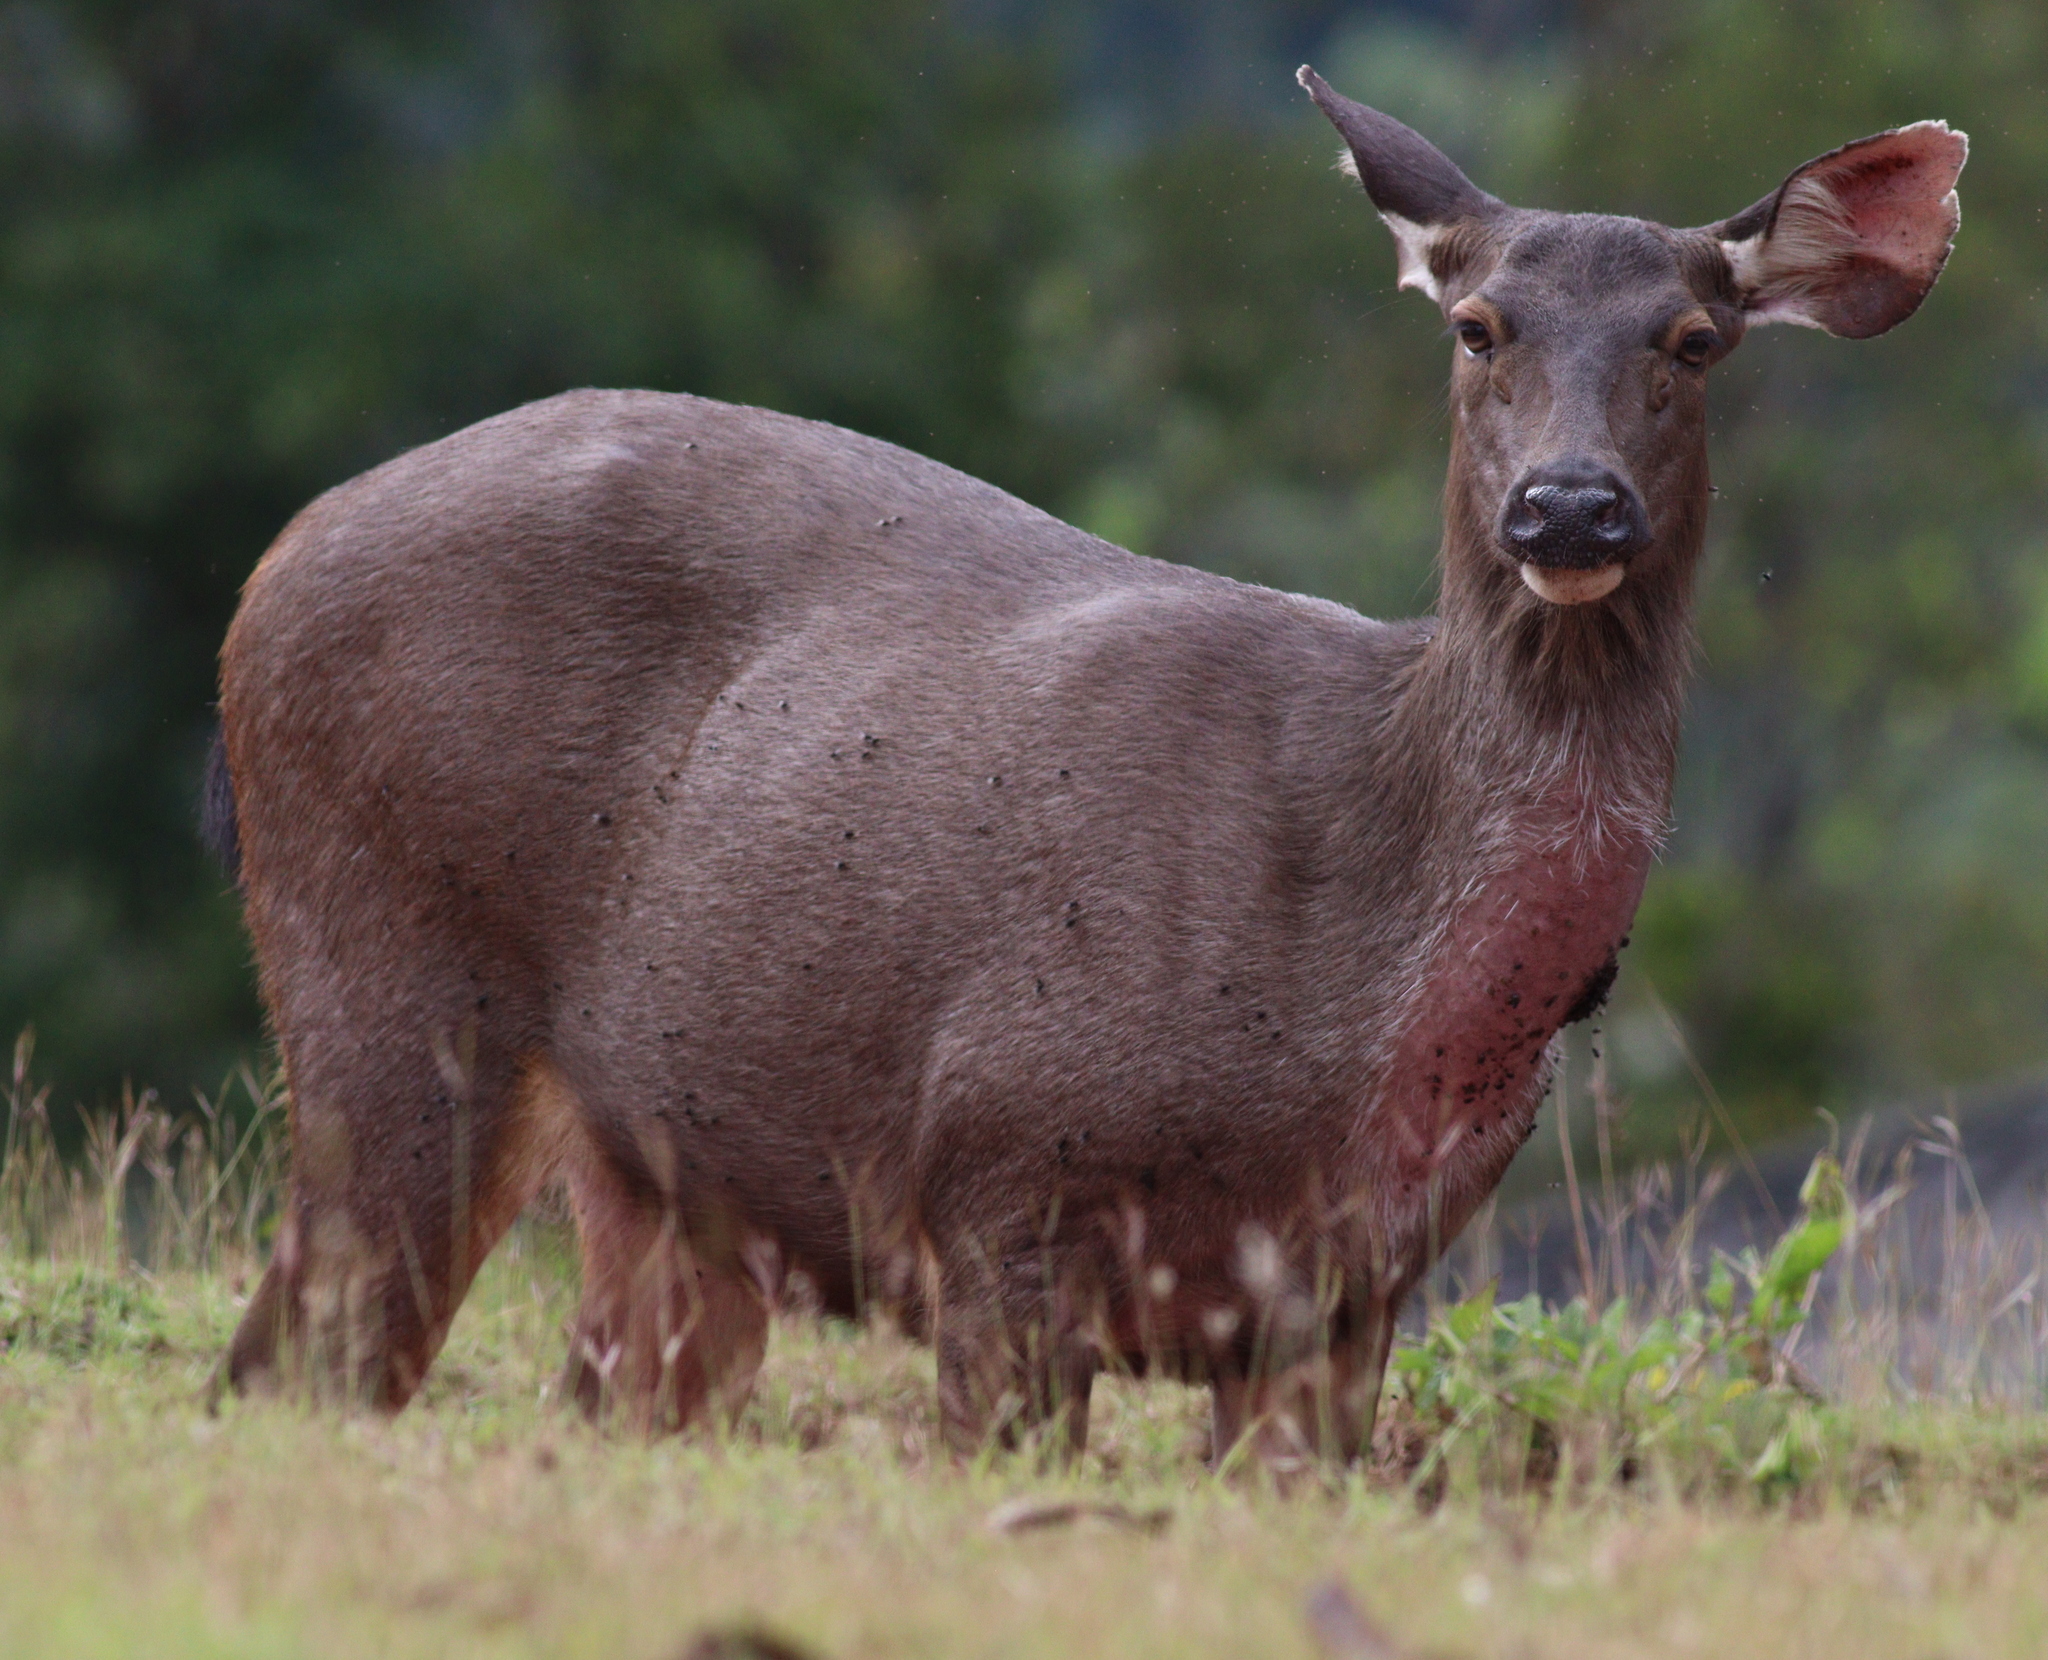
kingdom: Animalia
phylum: Chordata
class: Mammalia
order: Artiodactyla
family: Cervidae
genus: Rusa
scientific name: Rusa unicolor
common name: Sambar
